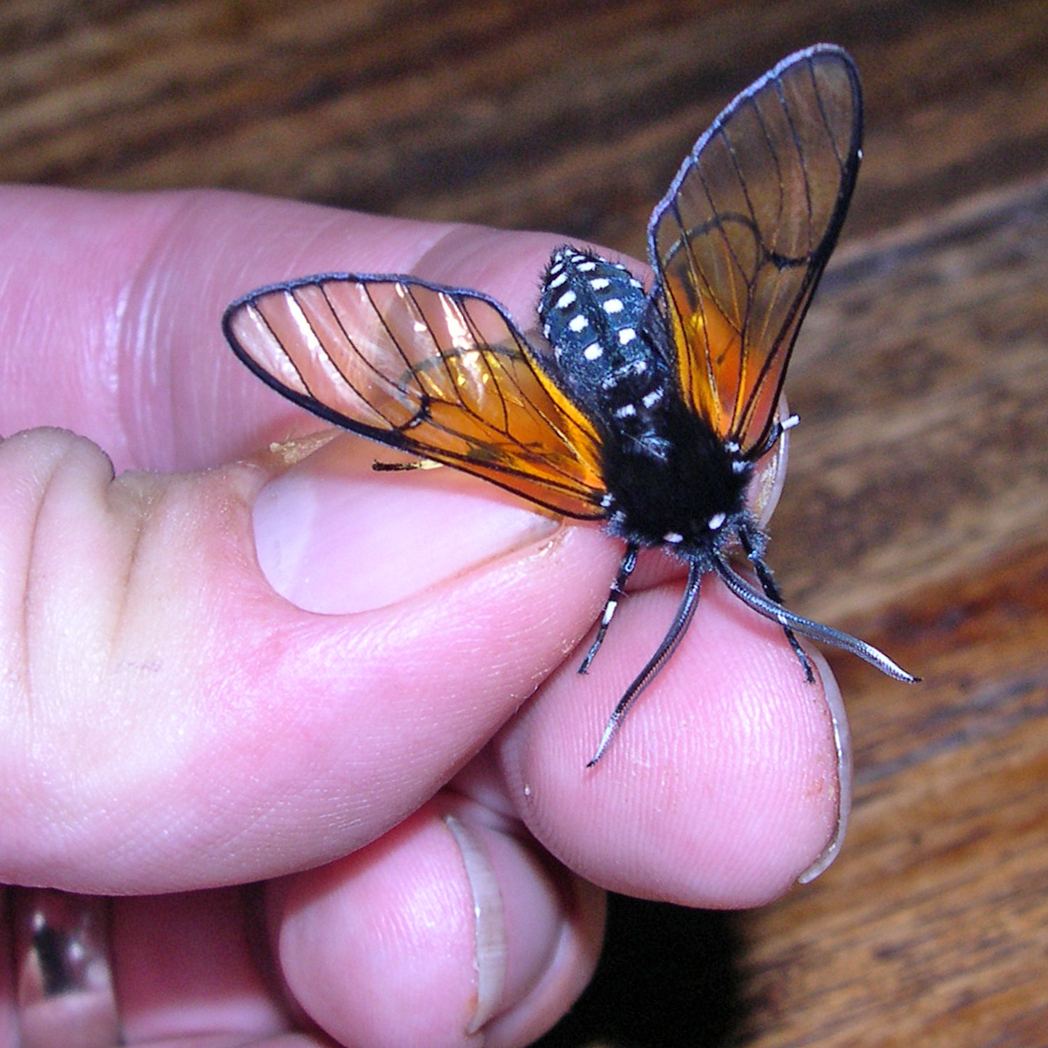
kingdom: Animalia
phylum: Arthropoda
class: Insecta
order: Lepidoptera
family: Erebidae
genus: Dasysphinx
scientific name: Dasysphinx volatilis
